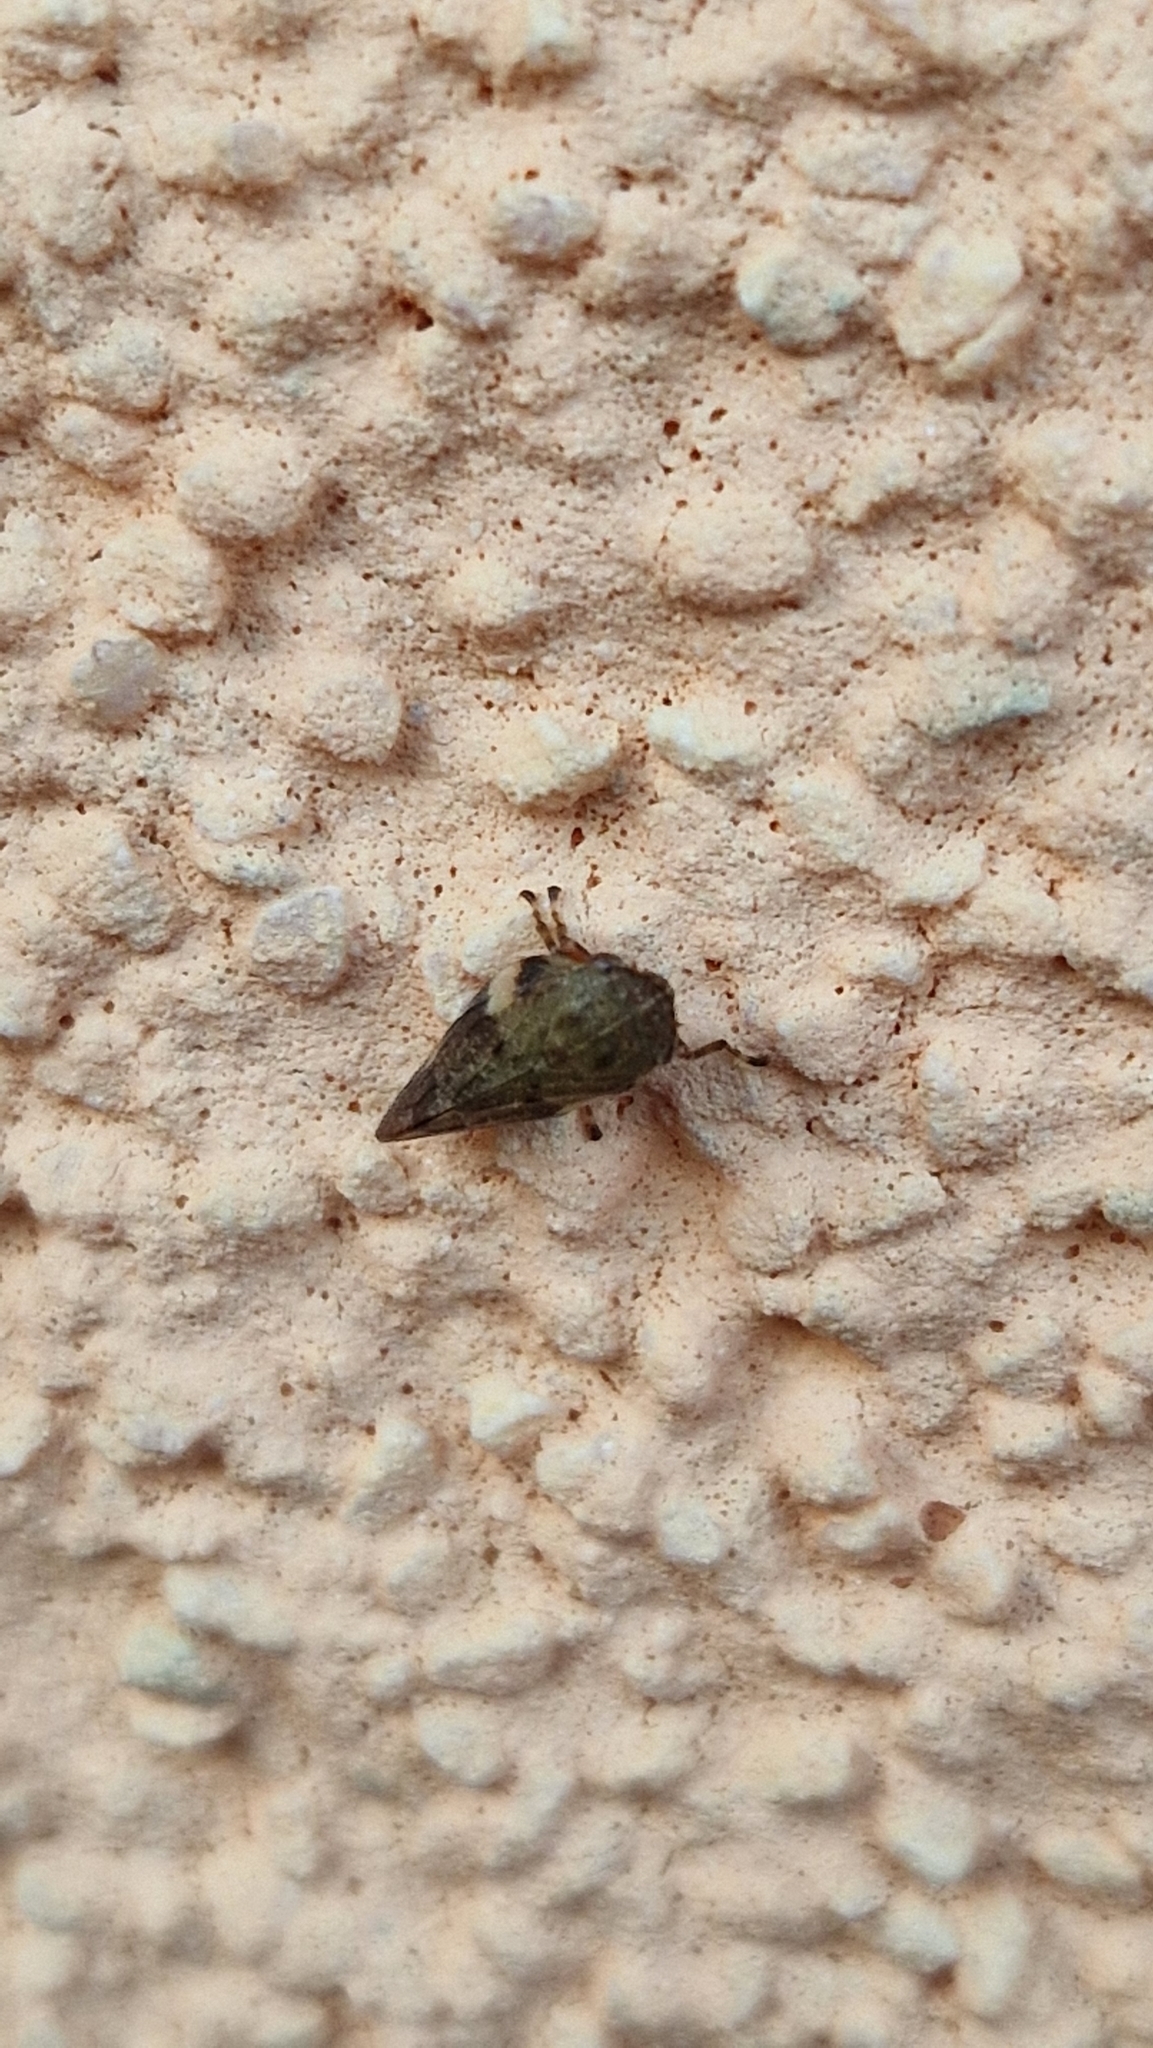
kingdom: Animalia
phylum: Arthropoda
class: Insecta
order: Hemiptera
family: Aphrophoridae
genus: Aphrophora
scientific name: Aphrophora alni
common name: European alder spittlebug
